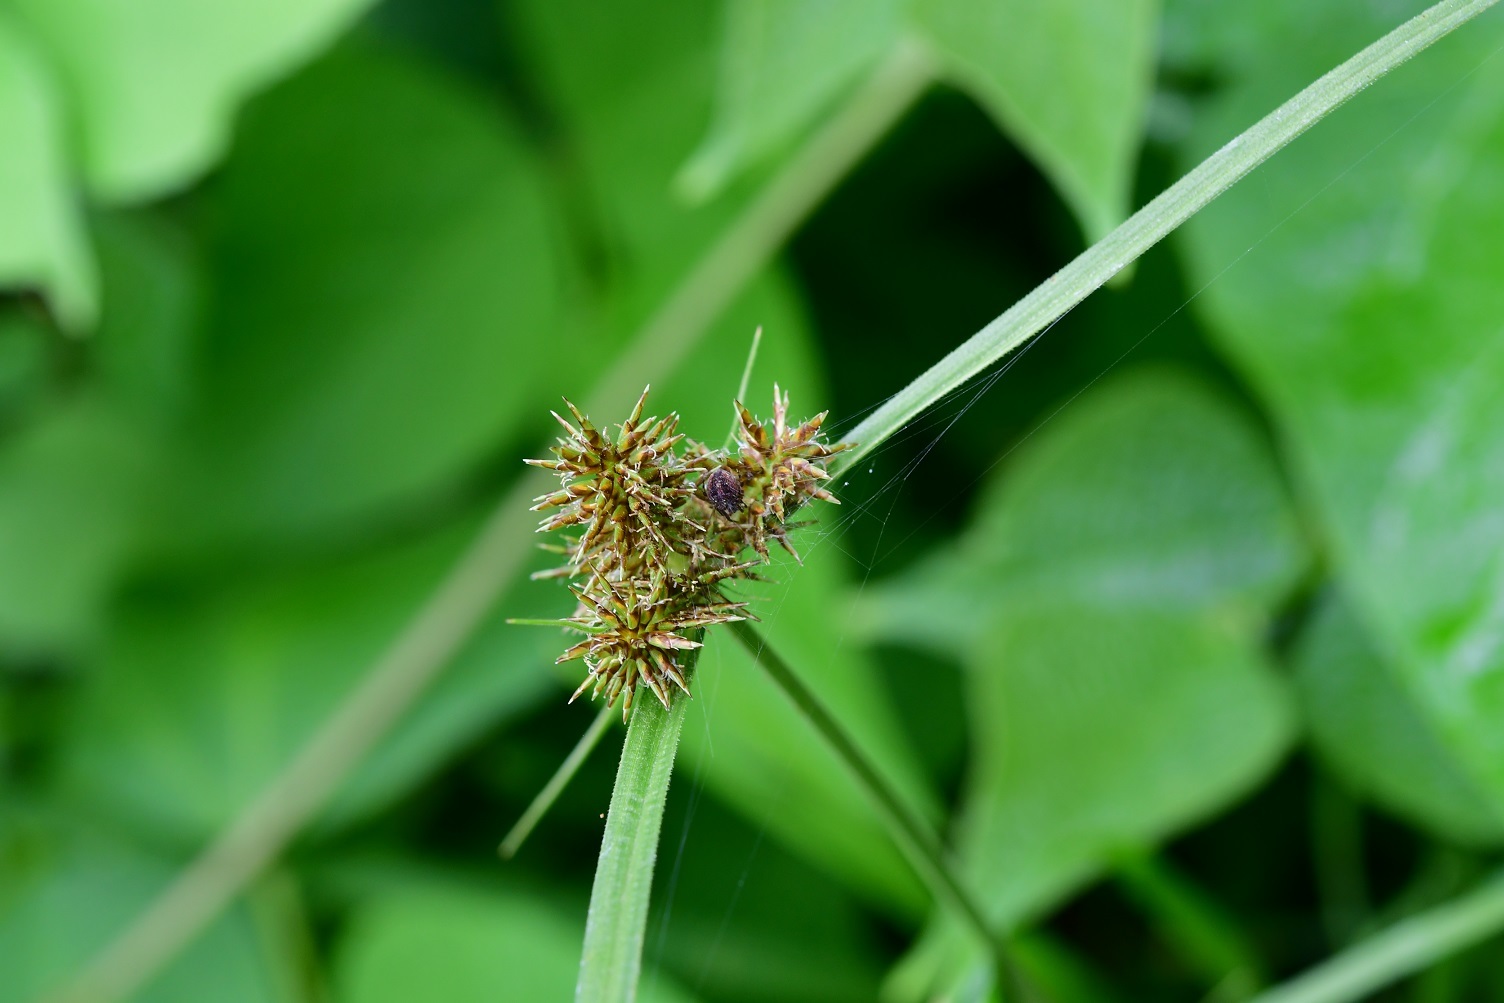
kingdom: Plantae
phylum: Tracheophyta
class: Liliopsida
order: Poales
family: Cyperaceae
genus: Cyperus
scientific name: Cyperus manimae
